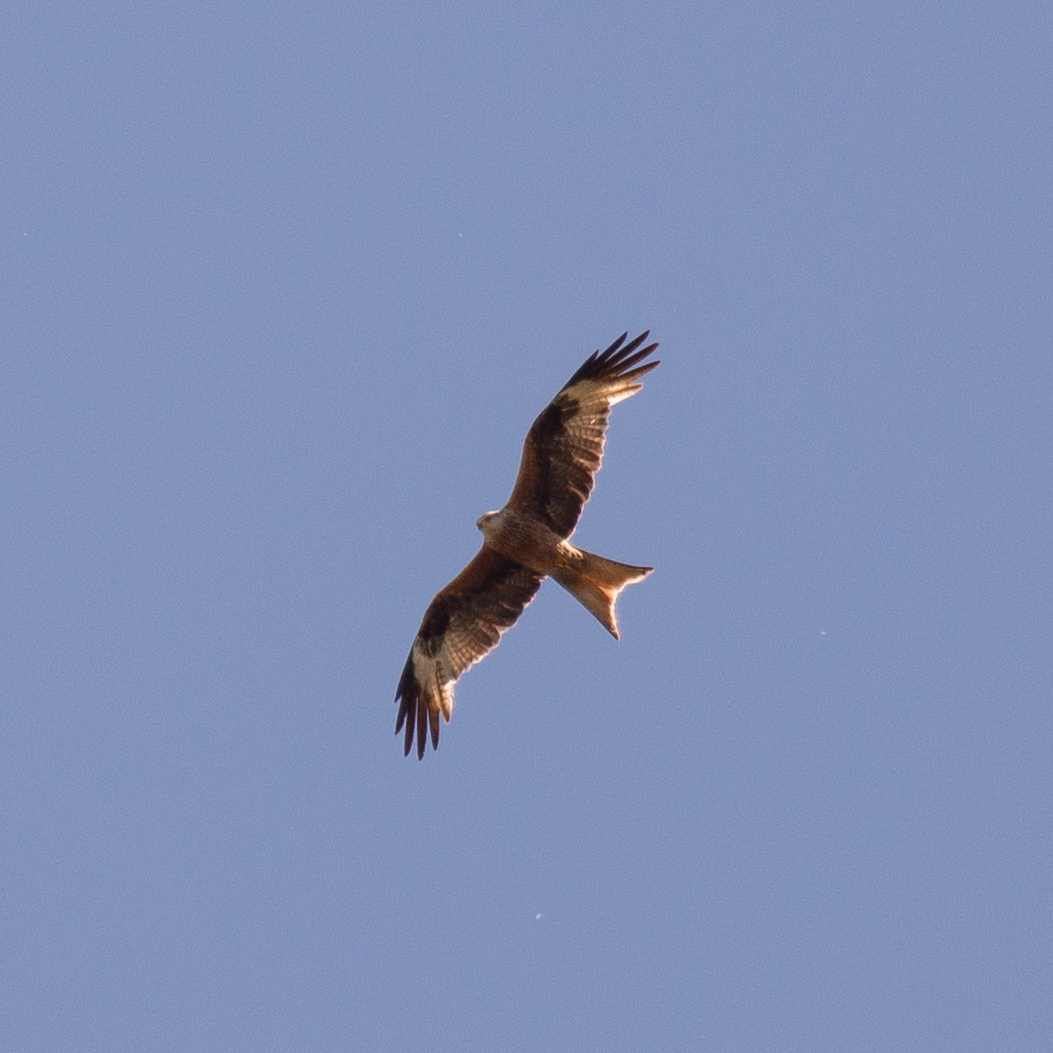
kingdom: Animalia
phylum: Chordata
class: Aves
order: Accipitriformes
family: Accipitridae
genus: Milvus
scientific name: Milvus milvus
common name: Red kite
